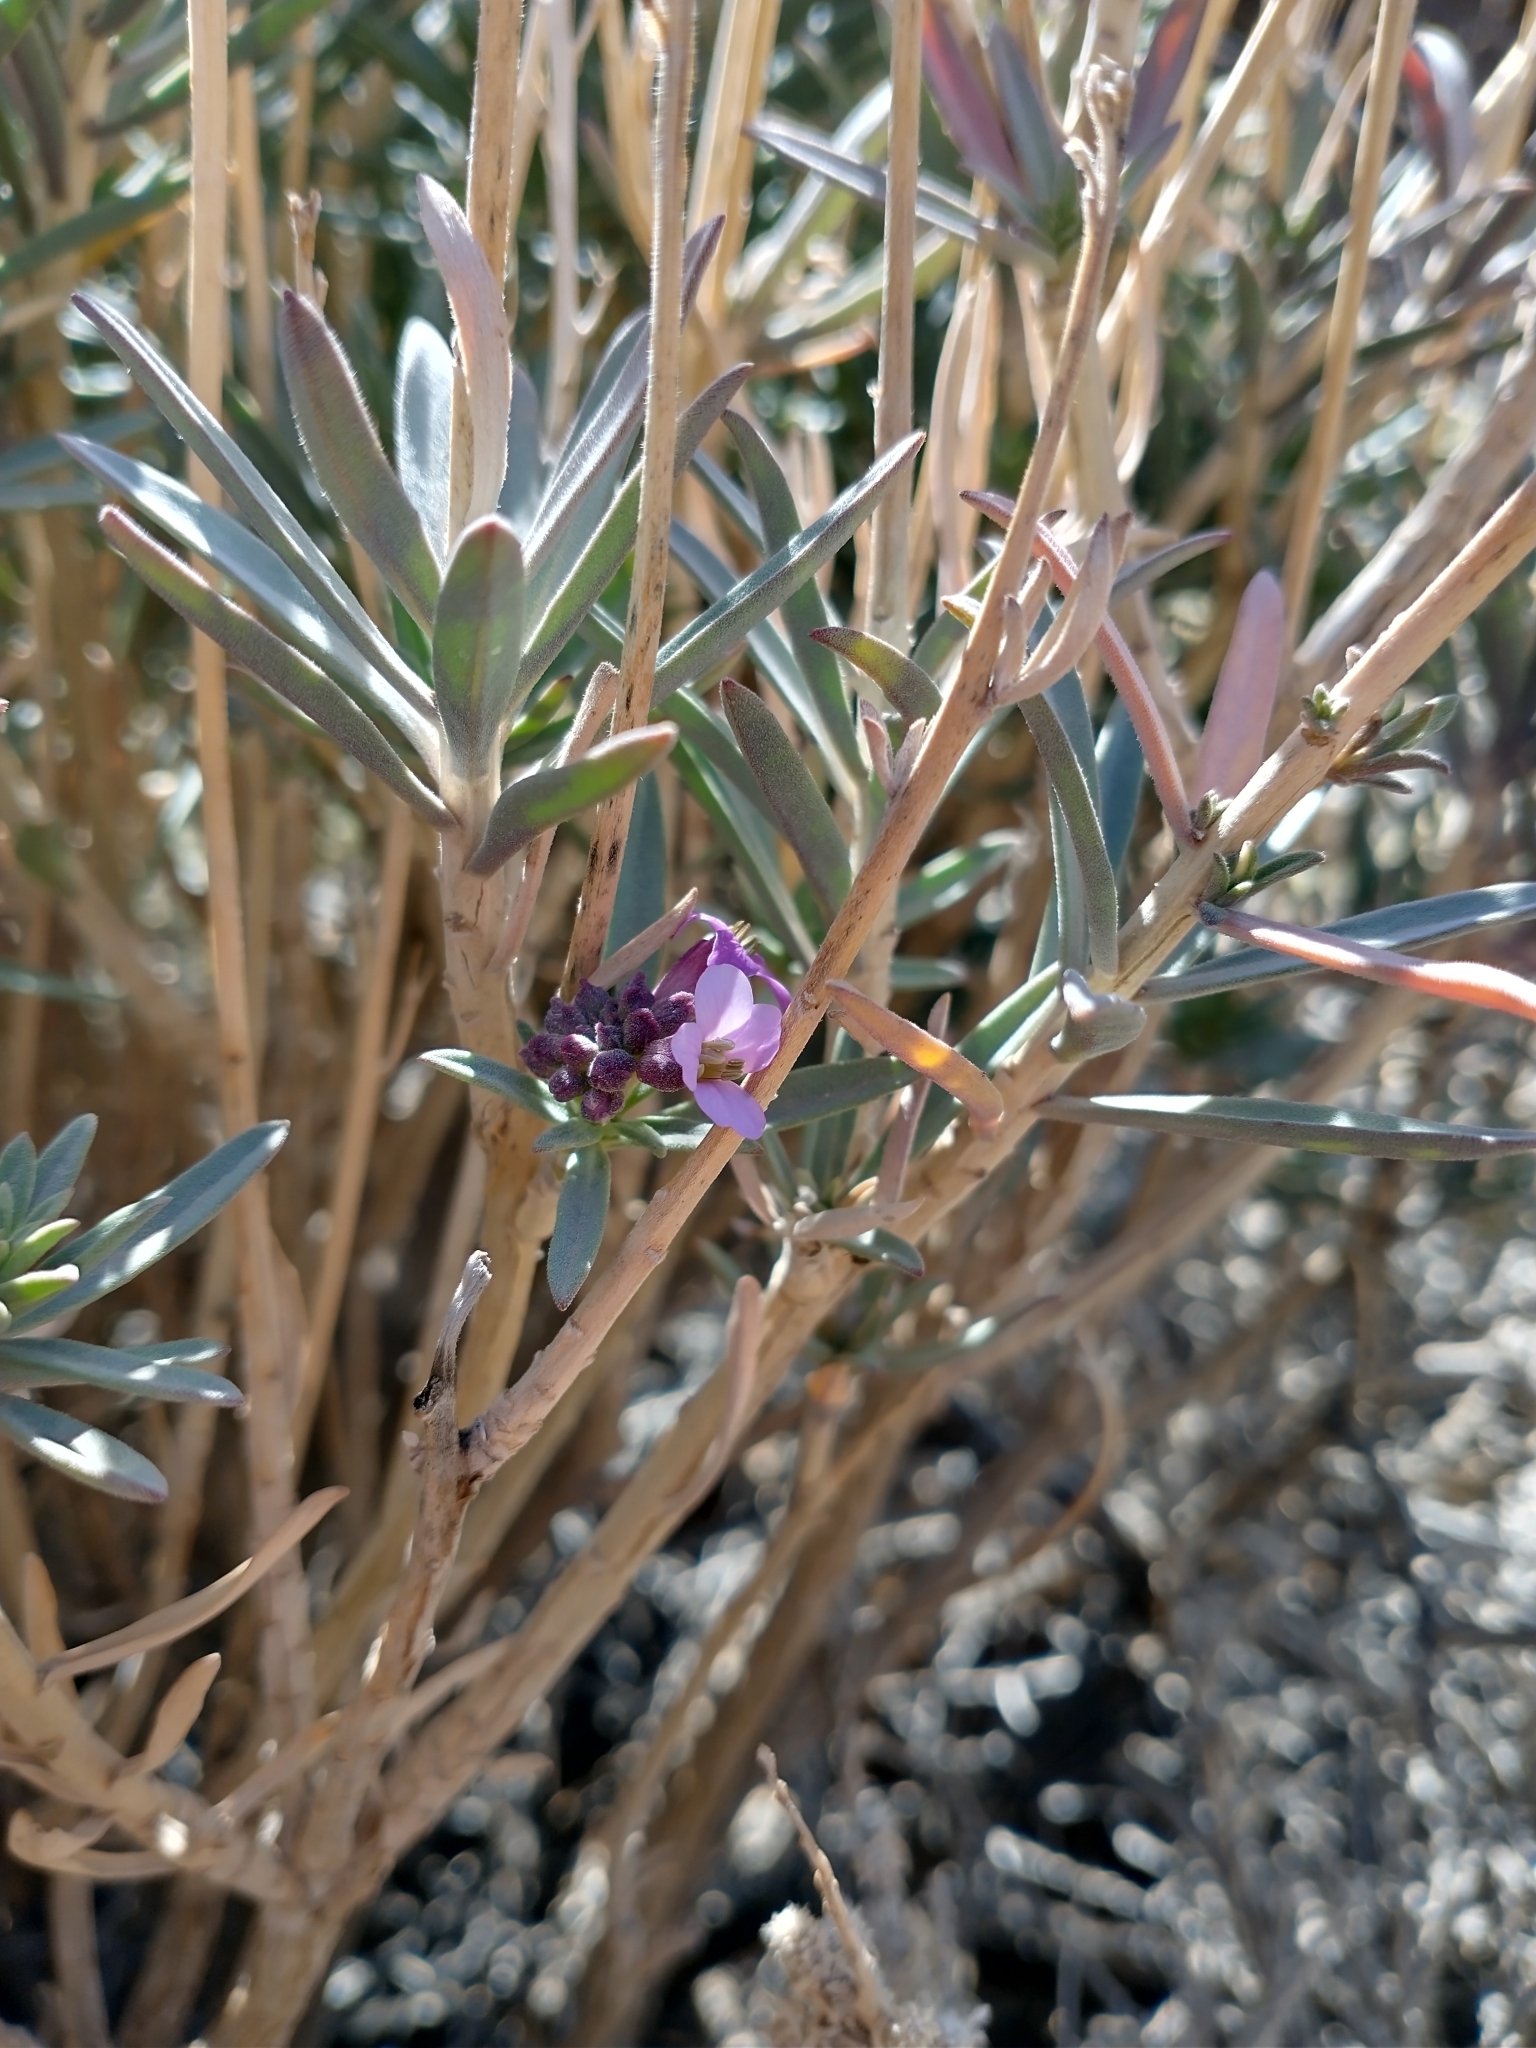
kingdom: Plantae
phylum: Tracheophyta
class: Magnoliopsida
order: Brassicales
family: Brassicaceae
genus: Erysimum
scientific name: Erysimum scoparium
